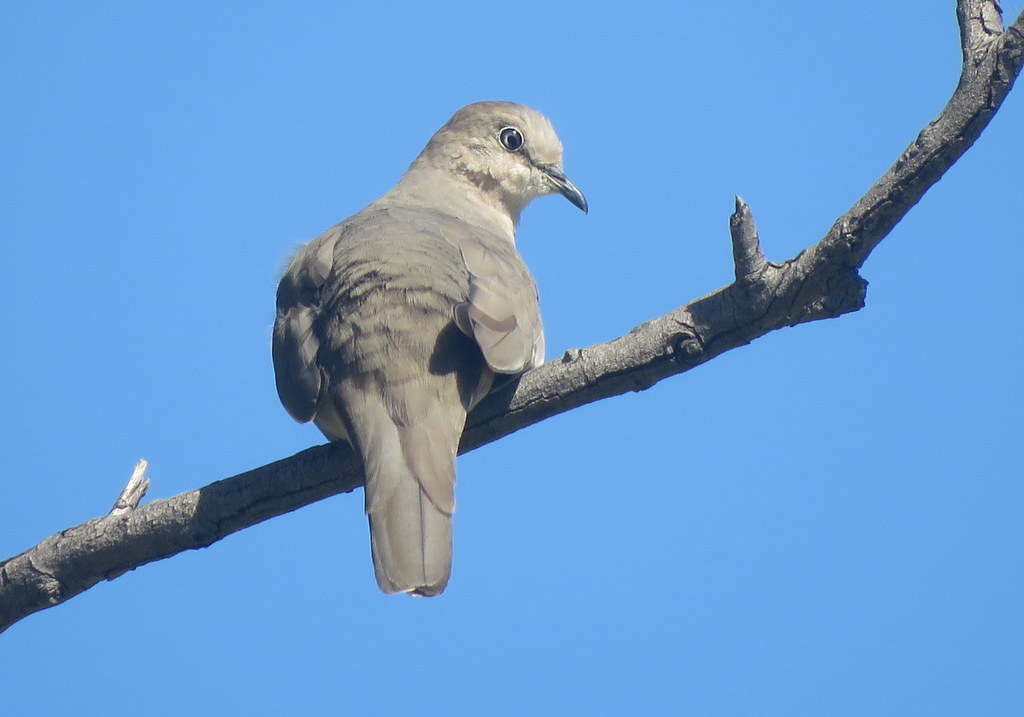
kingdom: Animalia
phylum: Chordata
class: Aves
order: Columbiformes
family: Columbidae
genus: Columbina
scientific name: Columbina picui
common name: Picui ground dove
